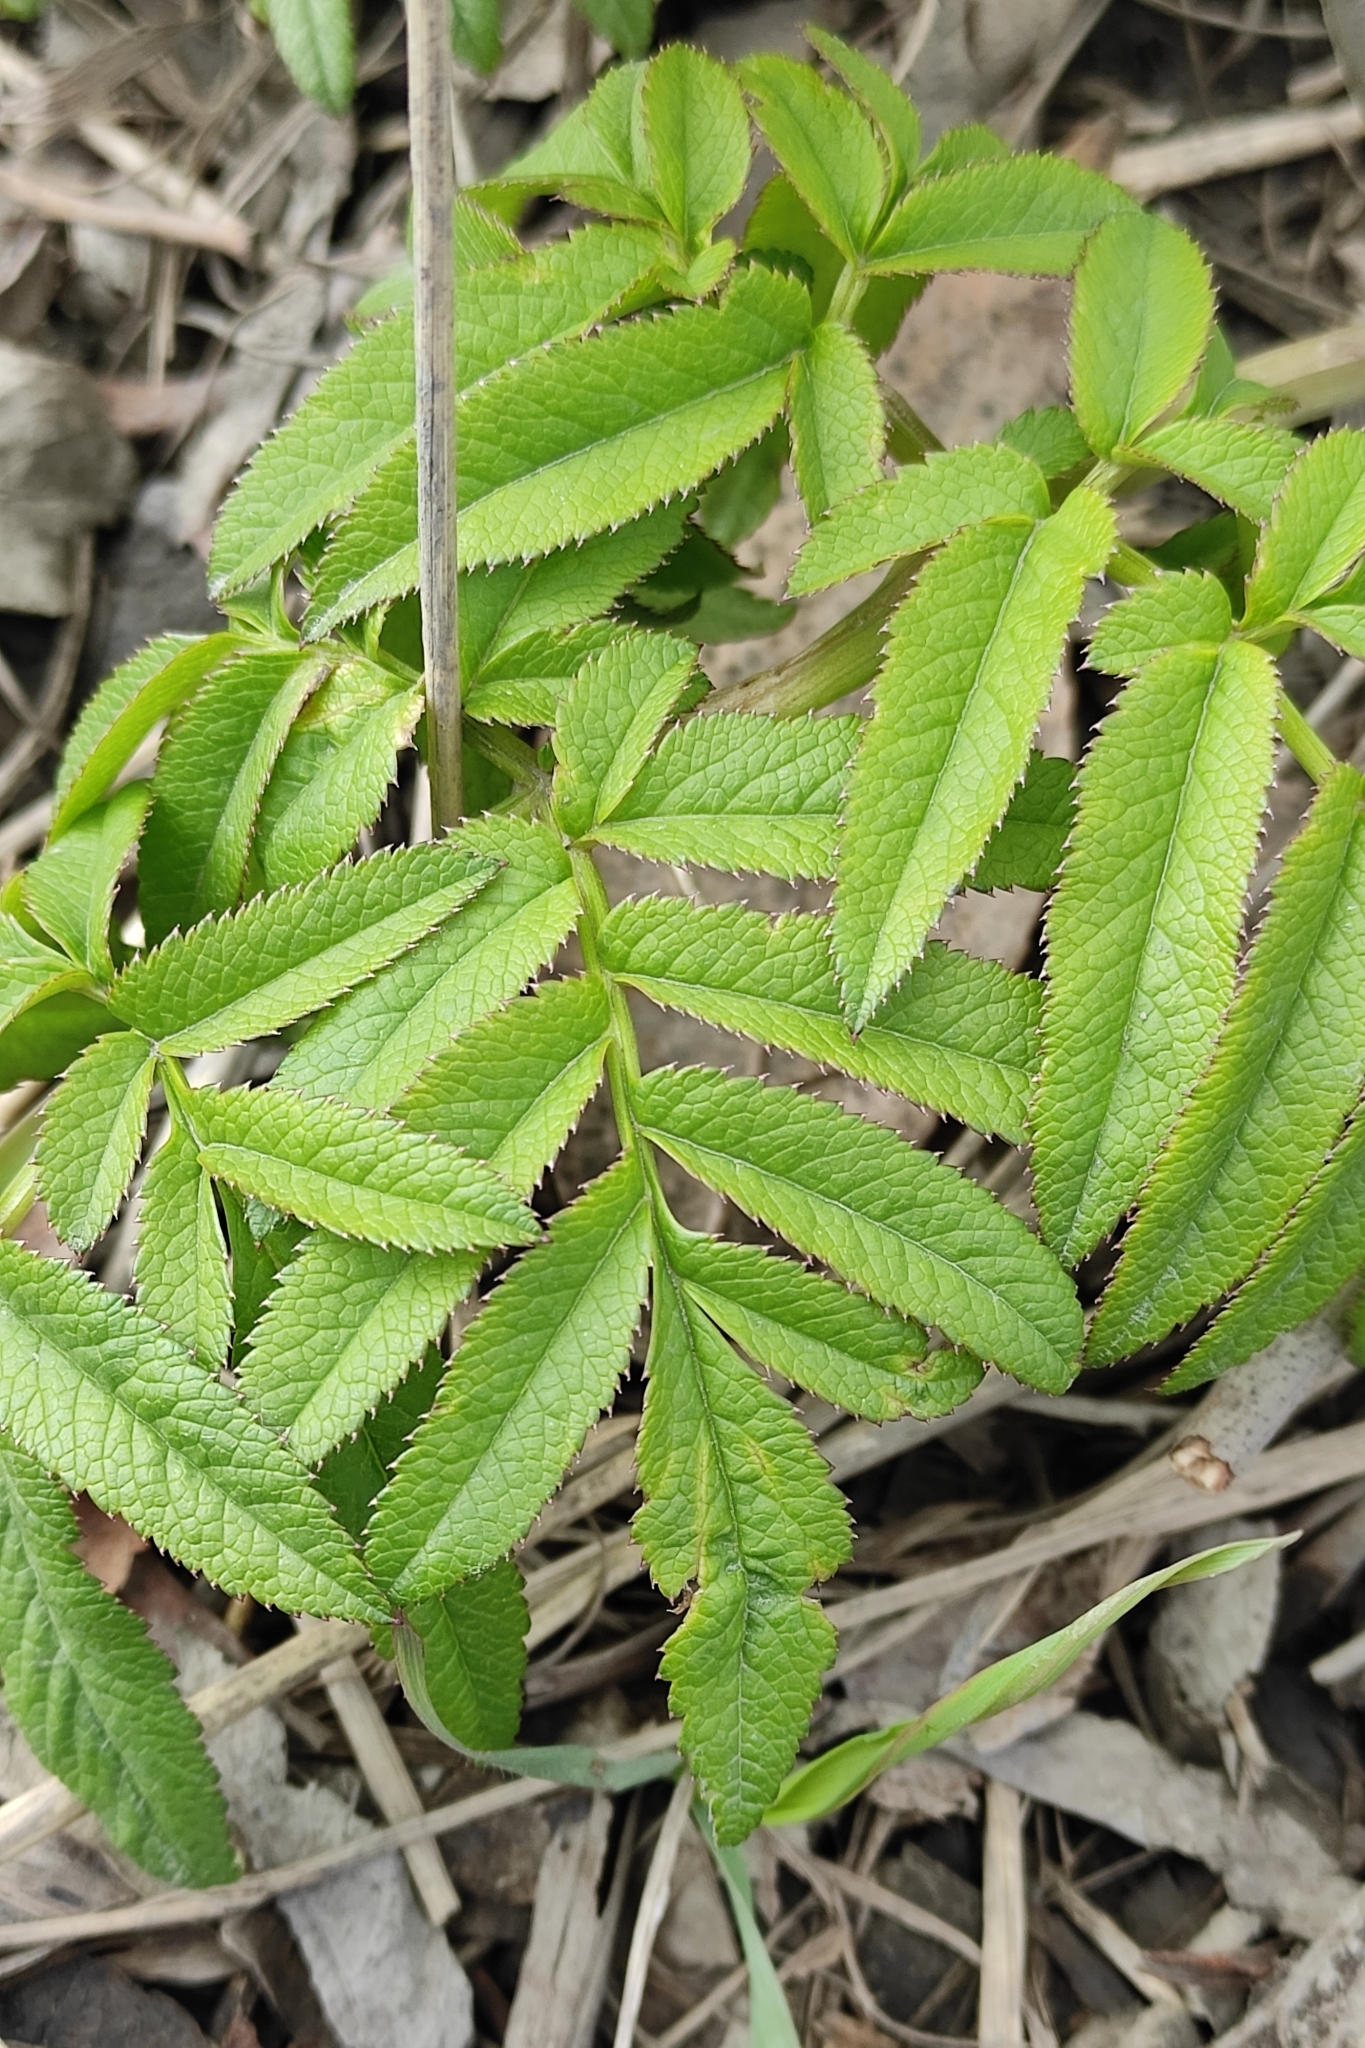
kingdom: Plantae
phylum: Tracheophyta
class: Magnoliopsida
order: Apiales
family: Apiaceae
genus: Angelica
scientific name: Angelica sylvestris
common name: Wild angelica
